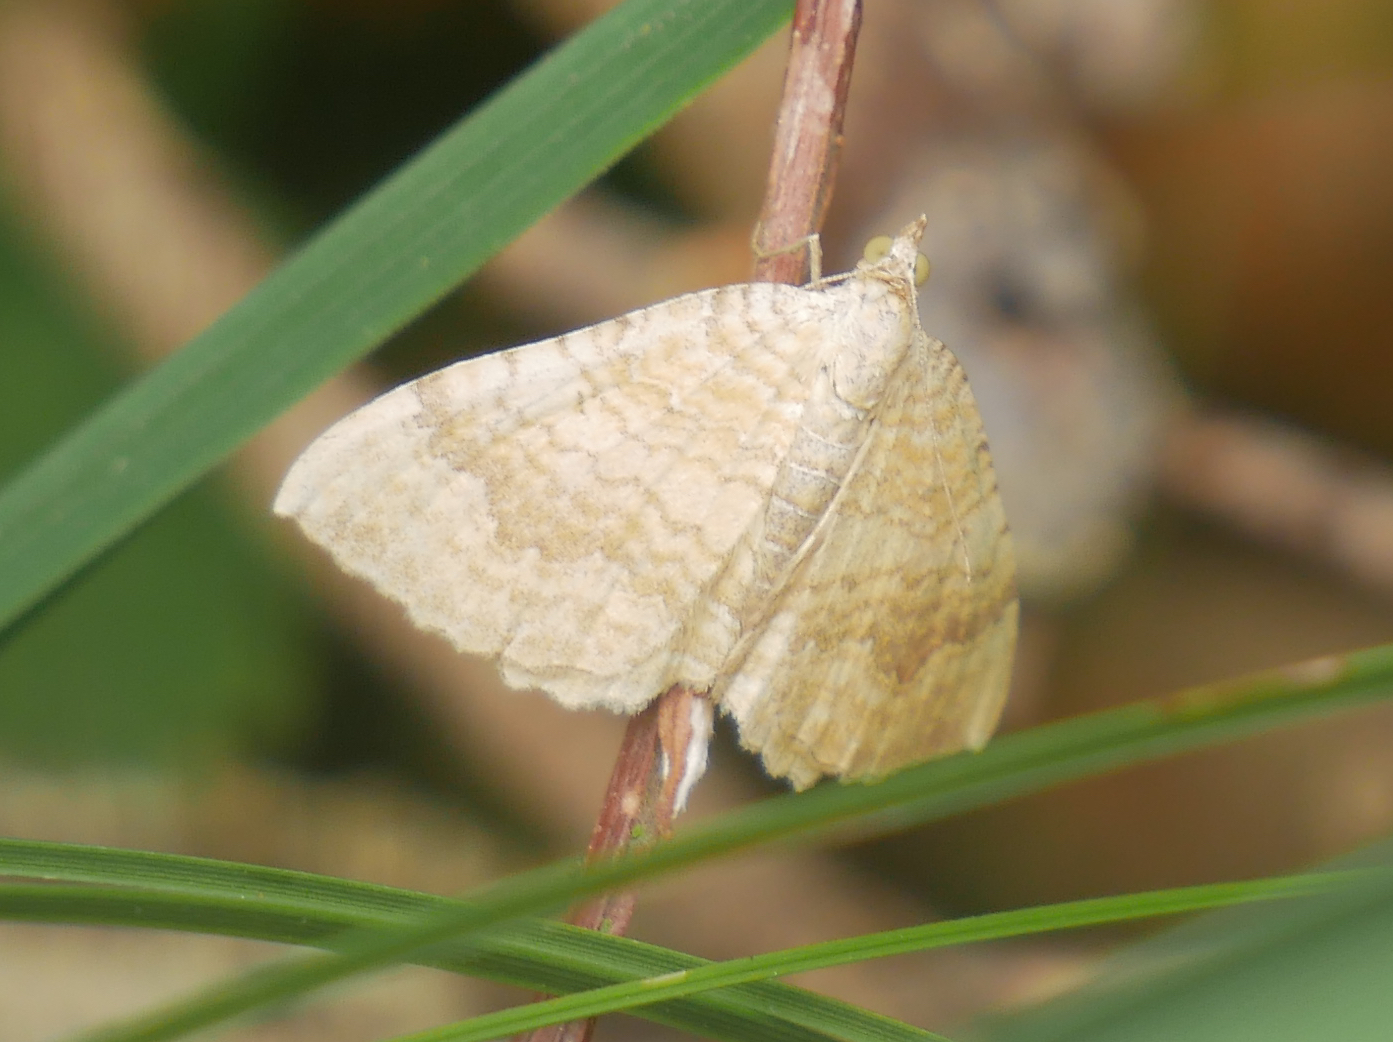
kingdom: Animalia
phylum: Arthropoda
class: Insecta
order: Lepidoptera
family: Geometridae
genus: Camptogramma
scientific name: Camptogramma bilineata
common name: Yellow shell
